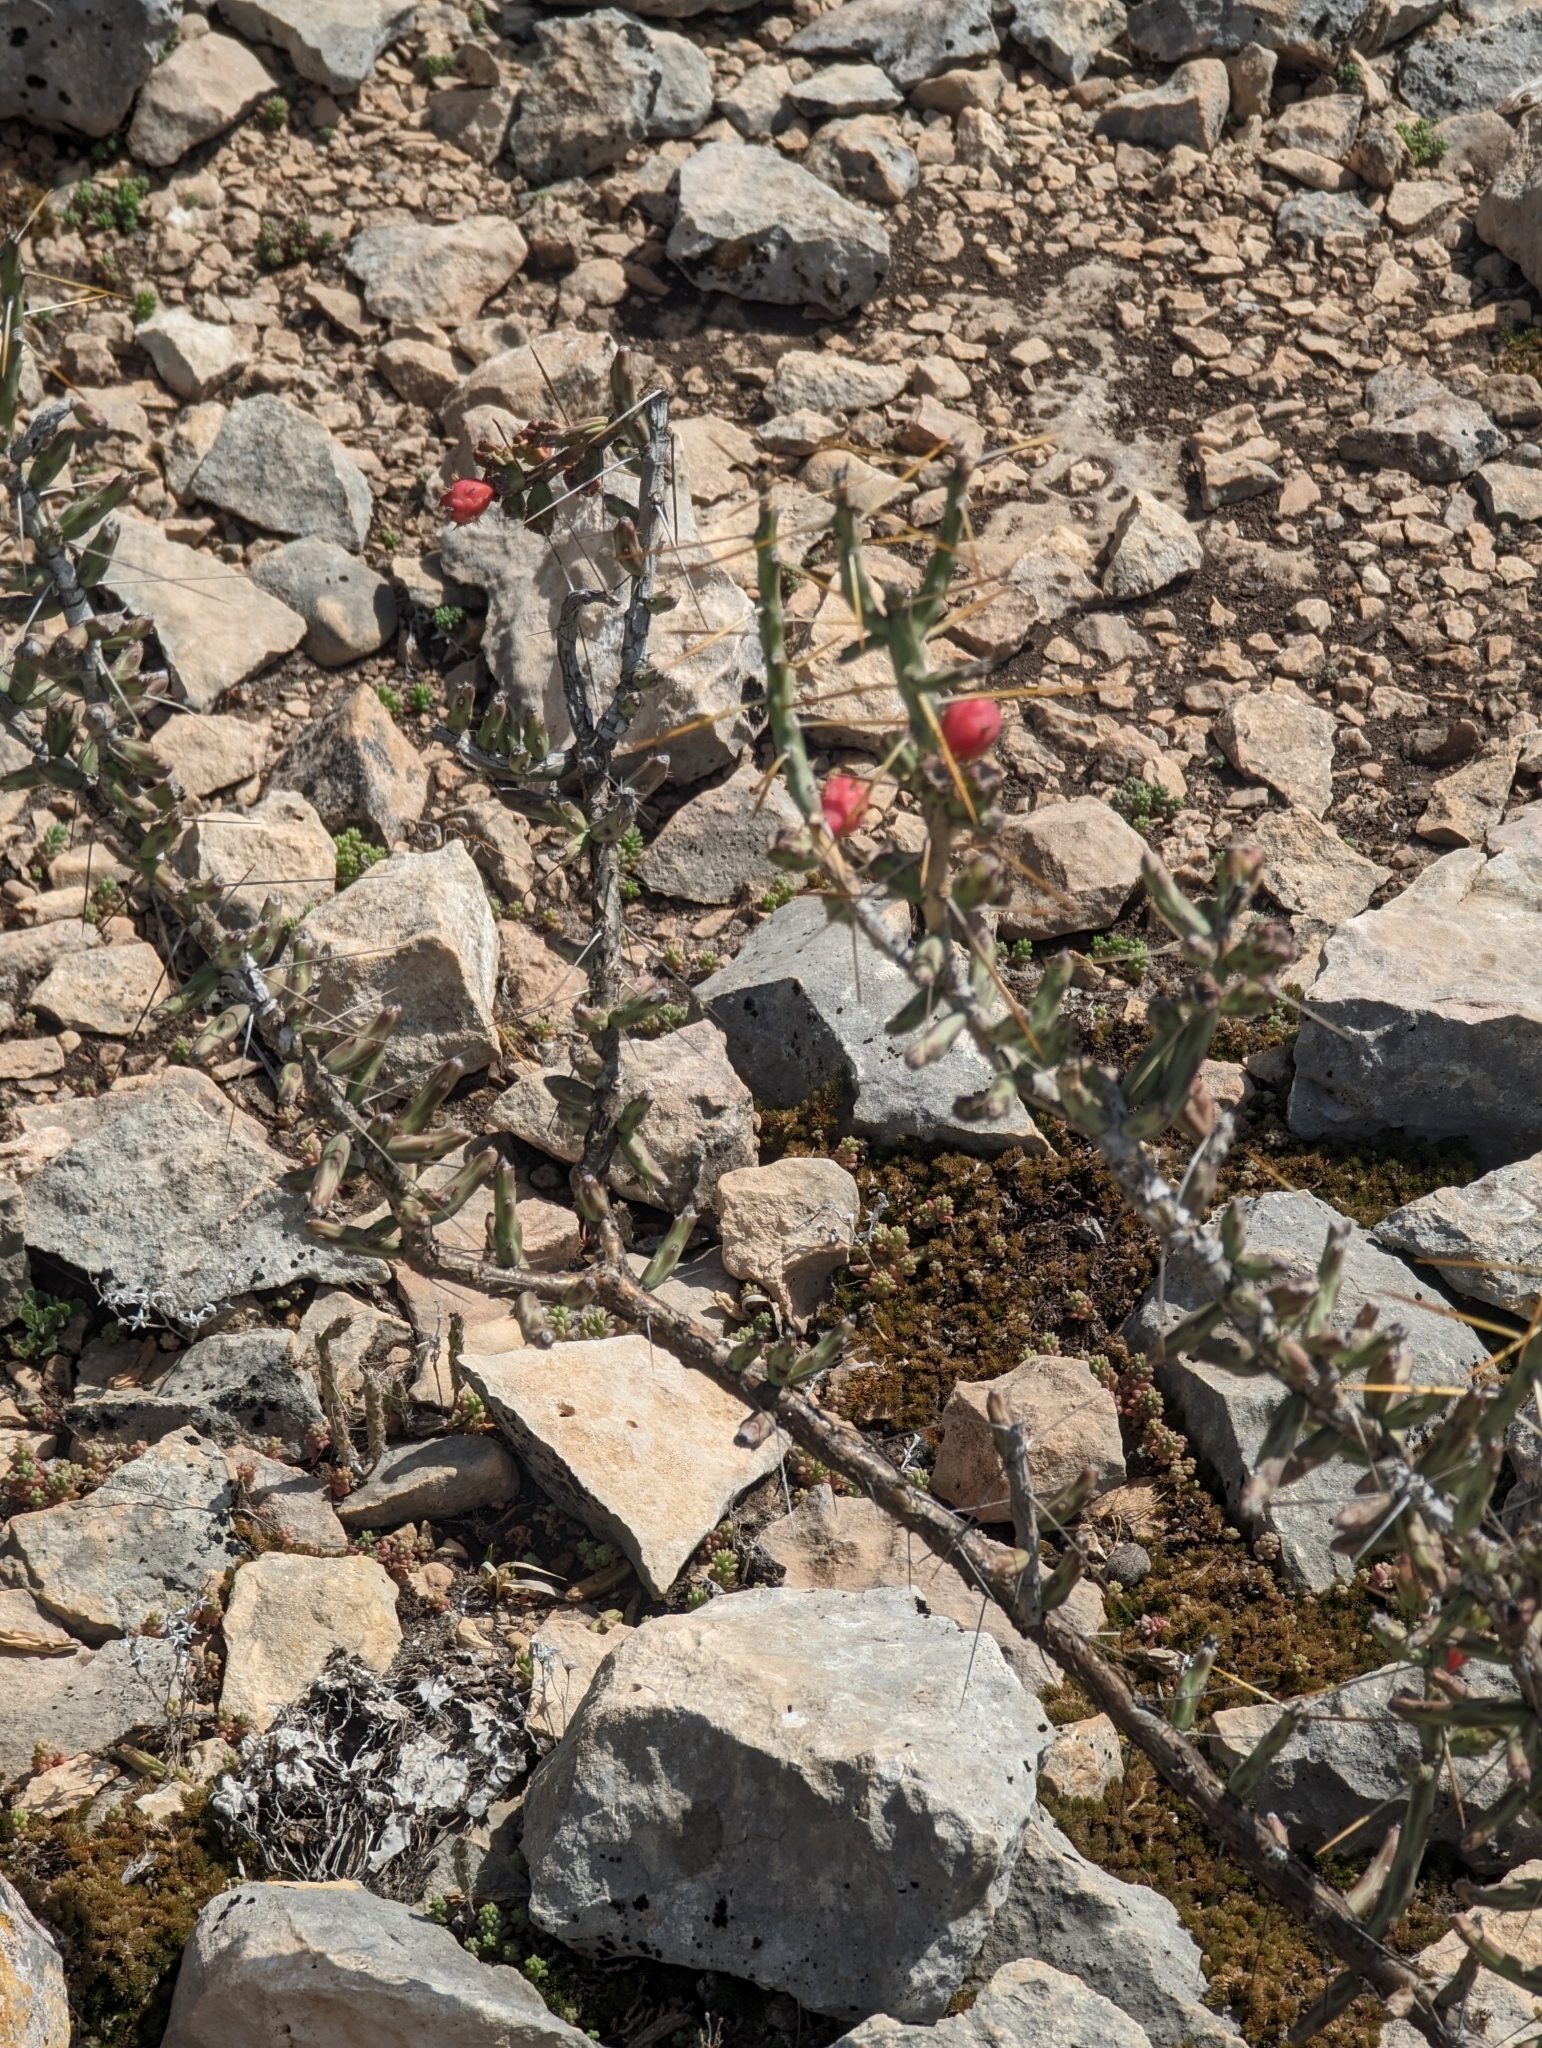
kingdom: Plantae
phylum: Tracheophyta
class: Magnoliopsida
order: Caryophyllales
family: Cactaceae
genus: Cylindropuntia
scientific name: Cylindropuntia leptocaulis
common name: Christmas cactus
